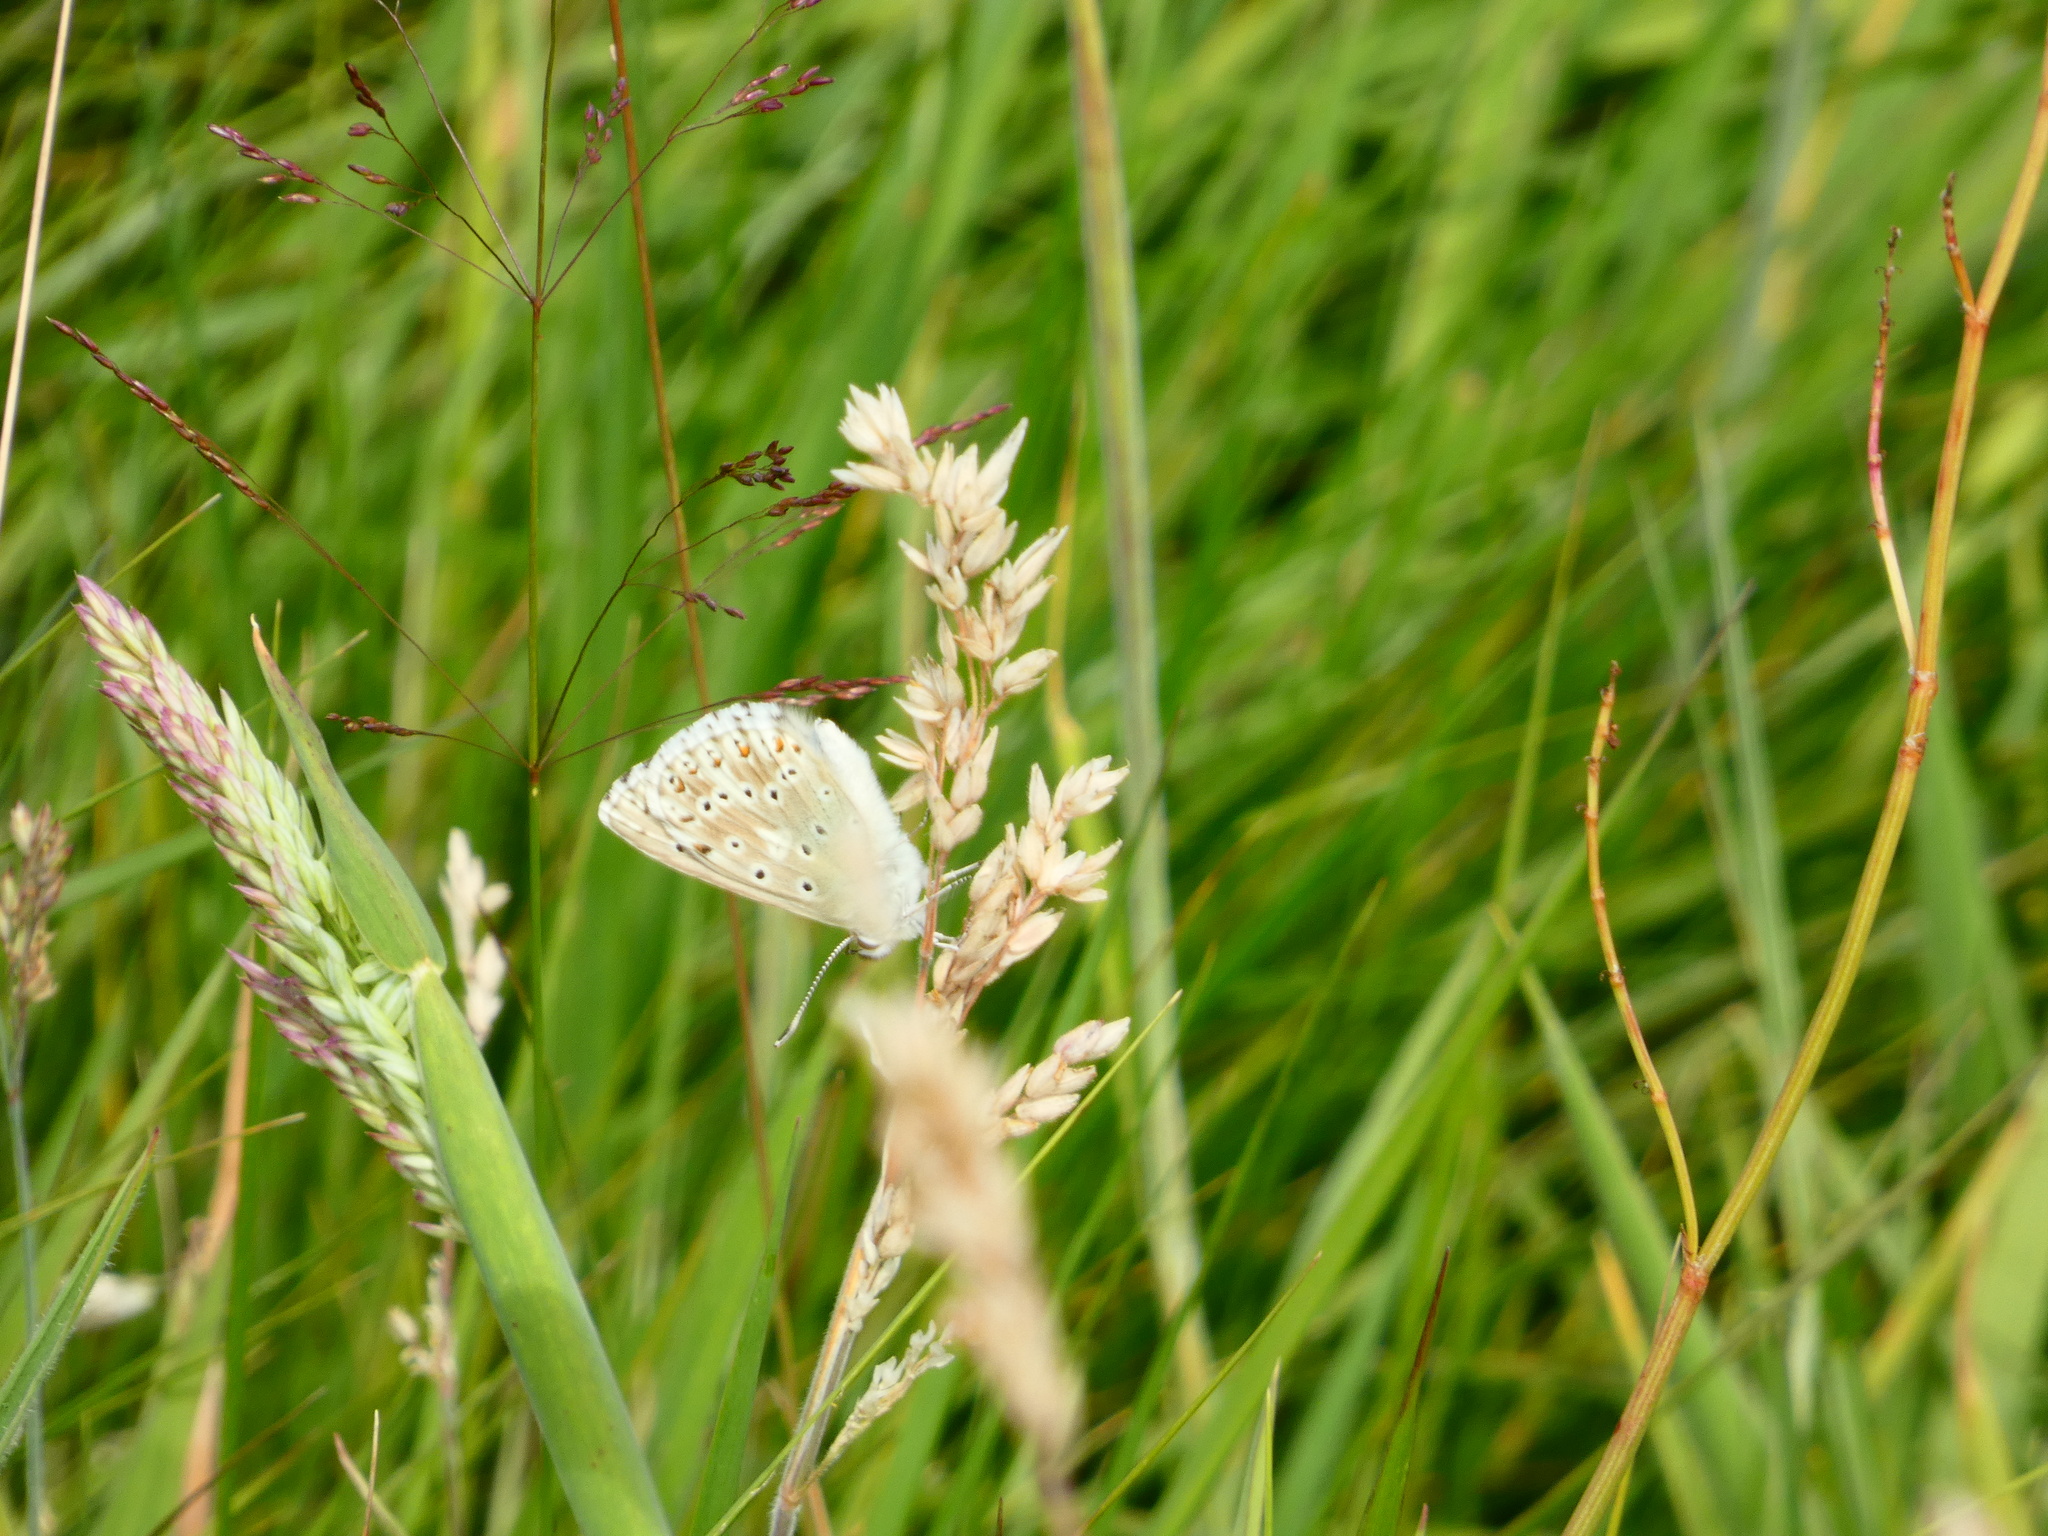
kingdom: Animalia
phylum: Arthropoda
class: Insecta
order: Lepidoptera
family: Lycaenidae
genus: Lysandra
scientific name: Lysandra coridon
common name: Chalkhill blue
